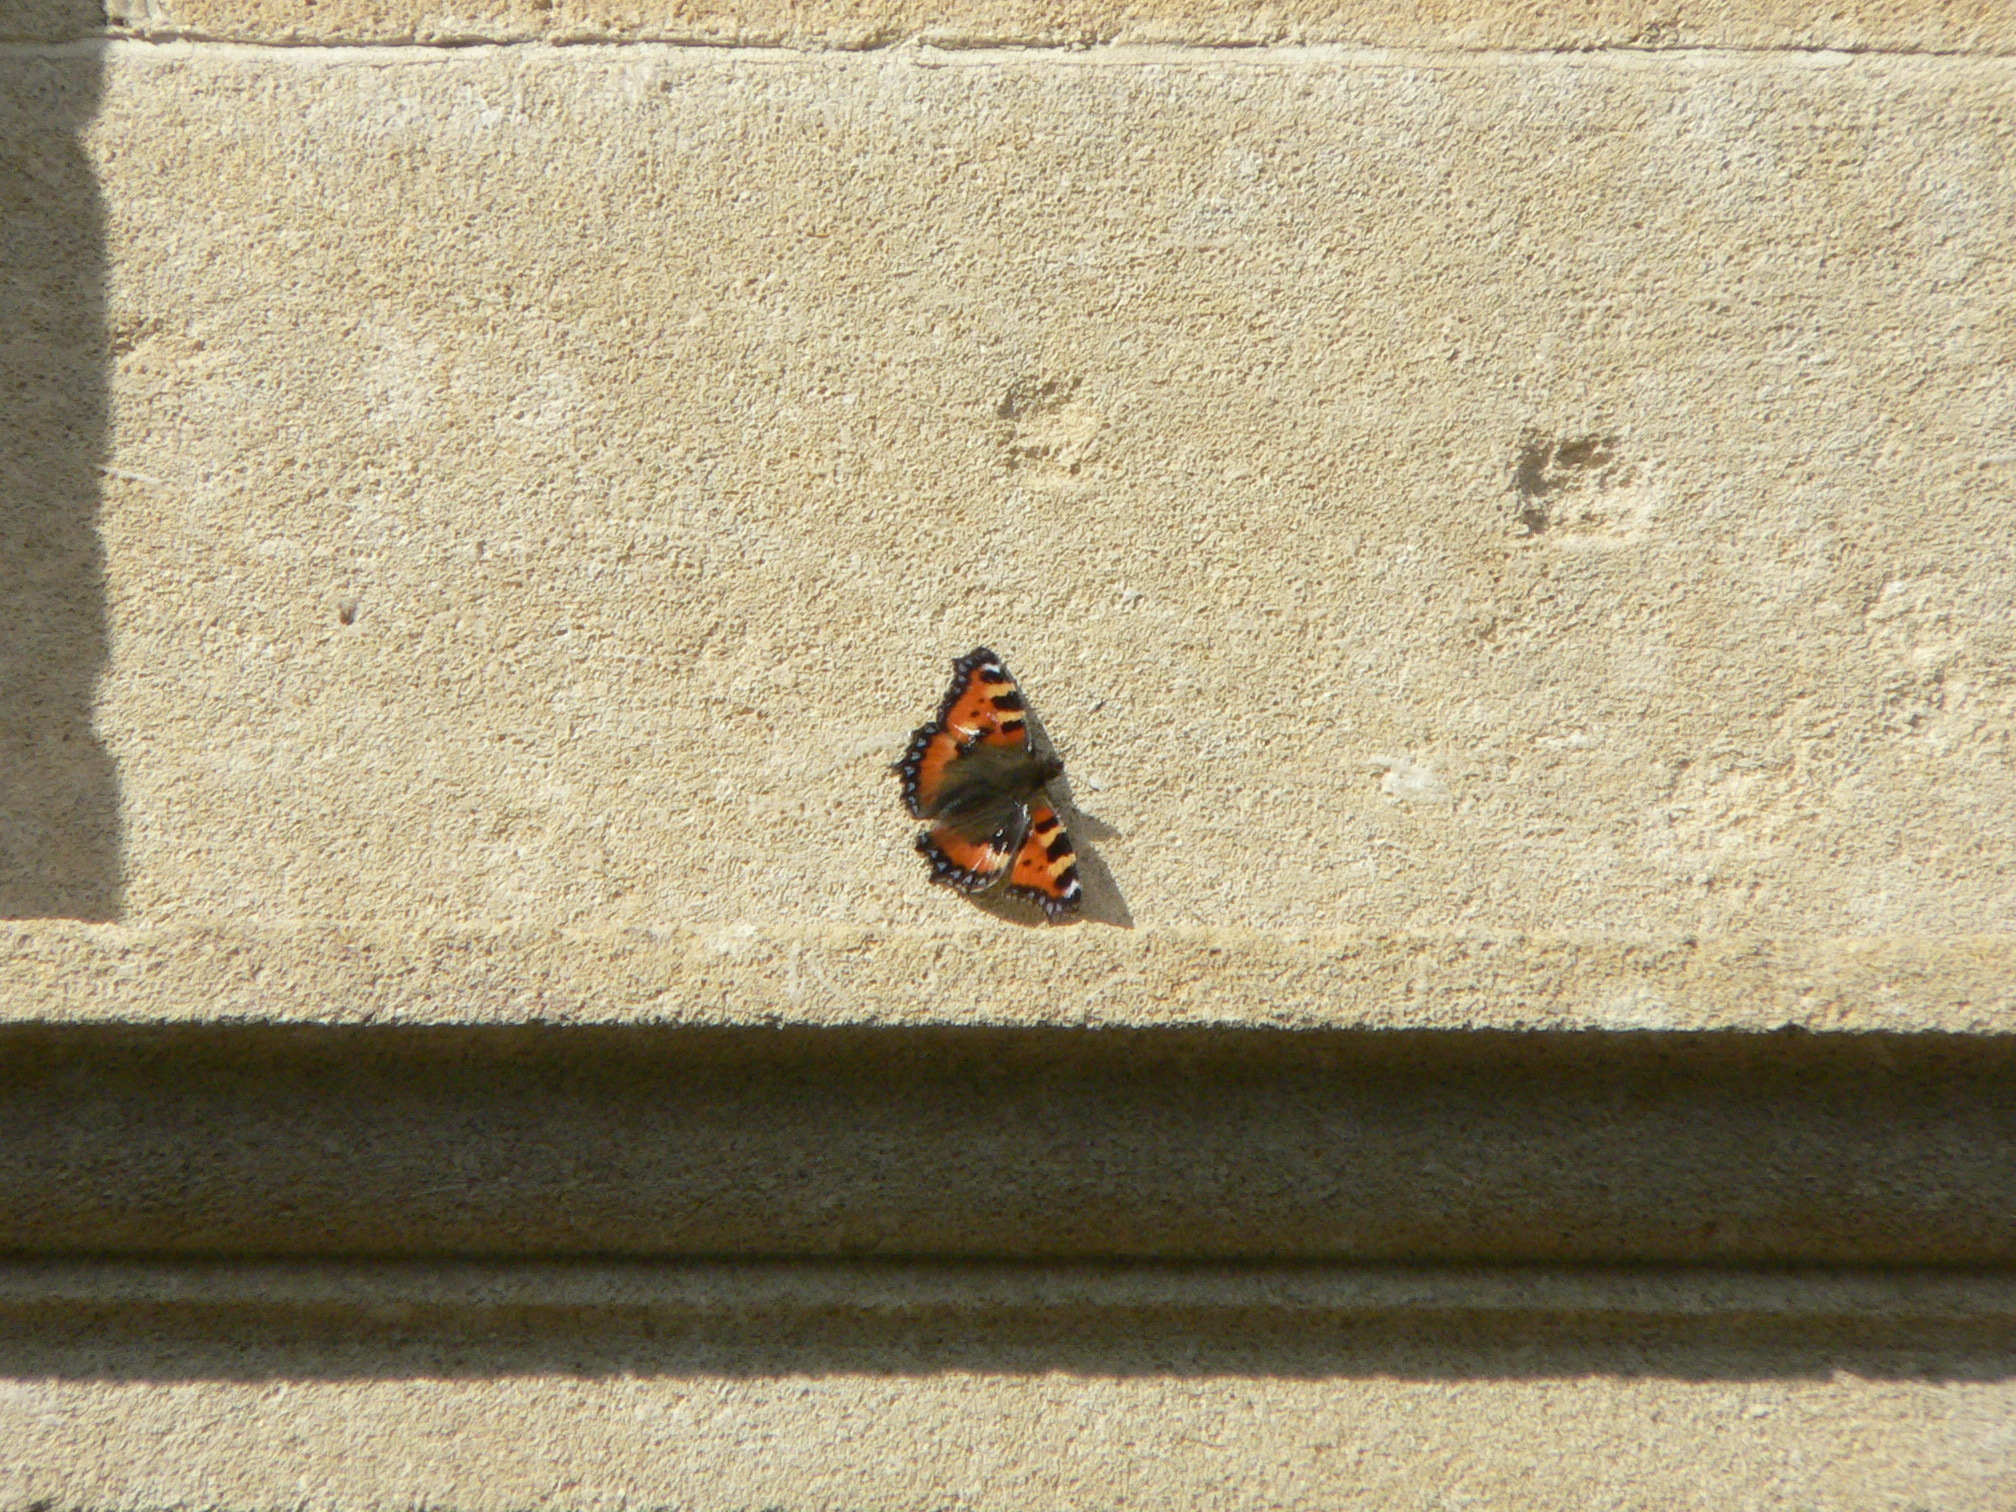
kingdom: Animalia
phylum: Arthropoda
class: Insecta
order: Lepidoptera
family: Nymphalidae
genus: Aglais
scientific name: Aglais urticae
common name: Small tortoiseshell
